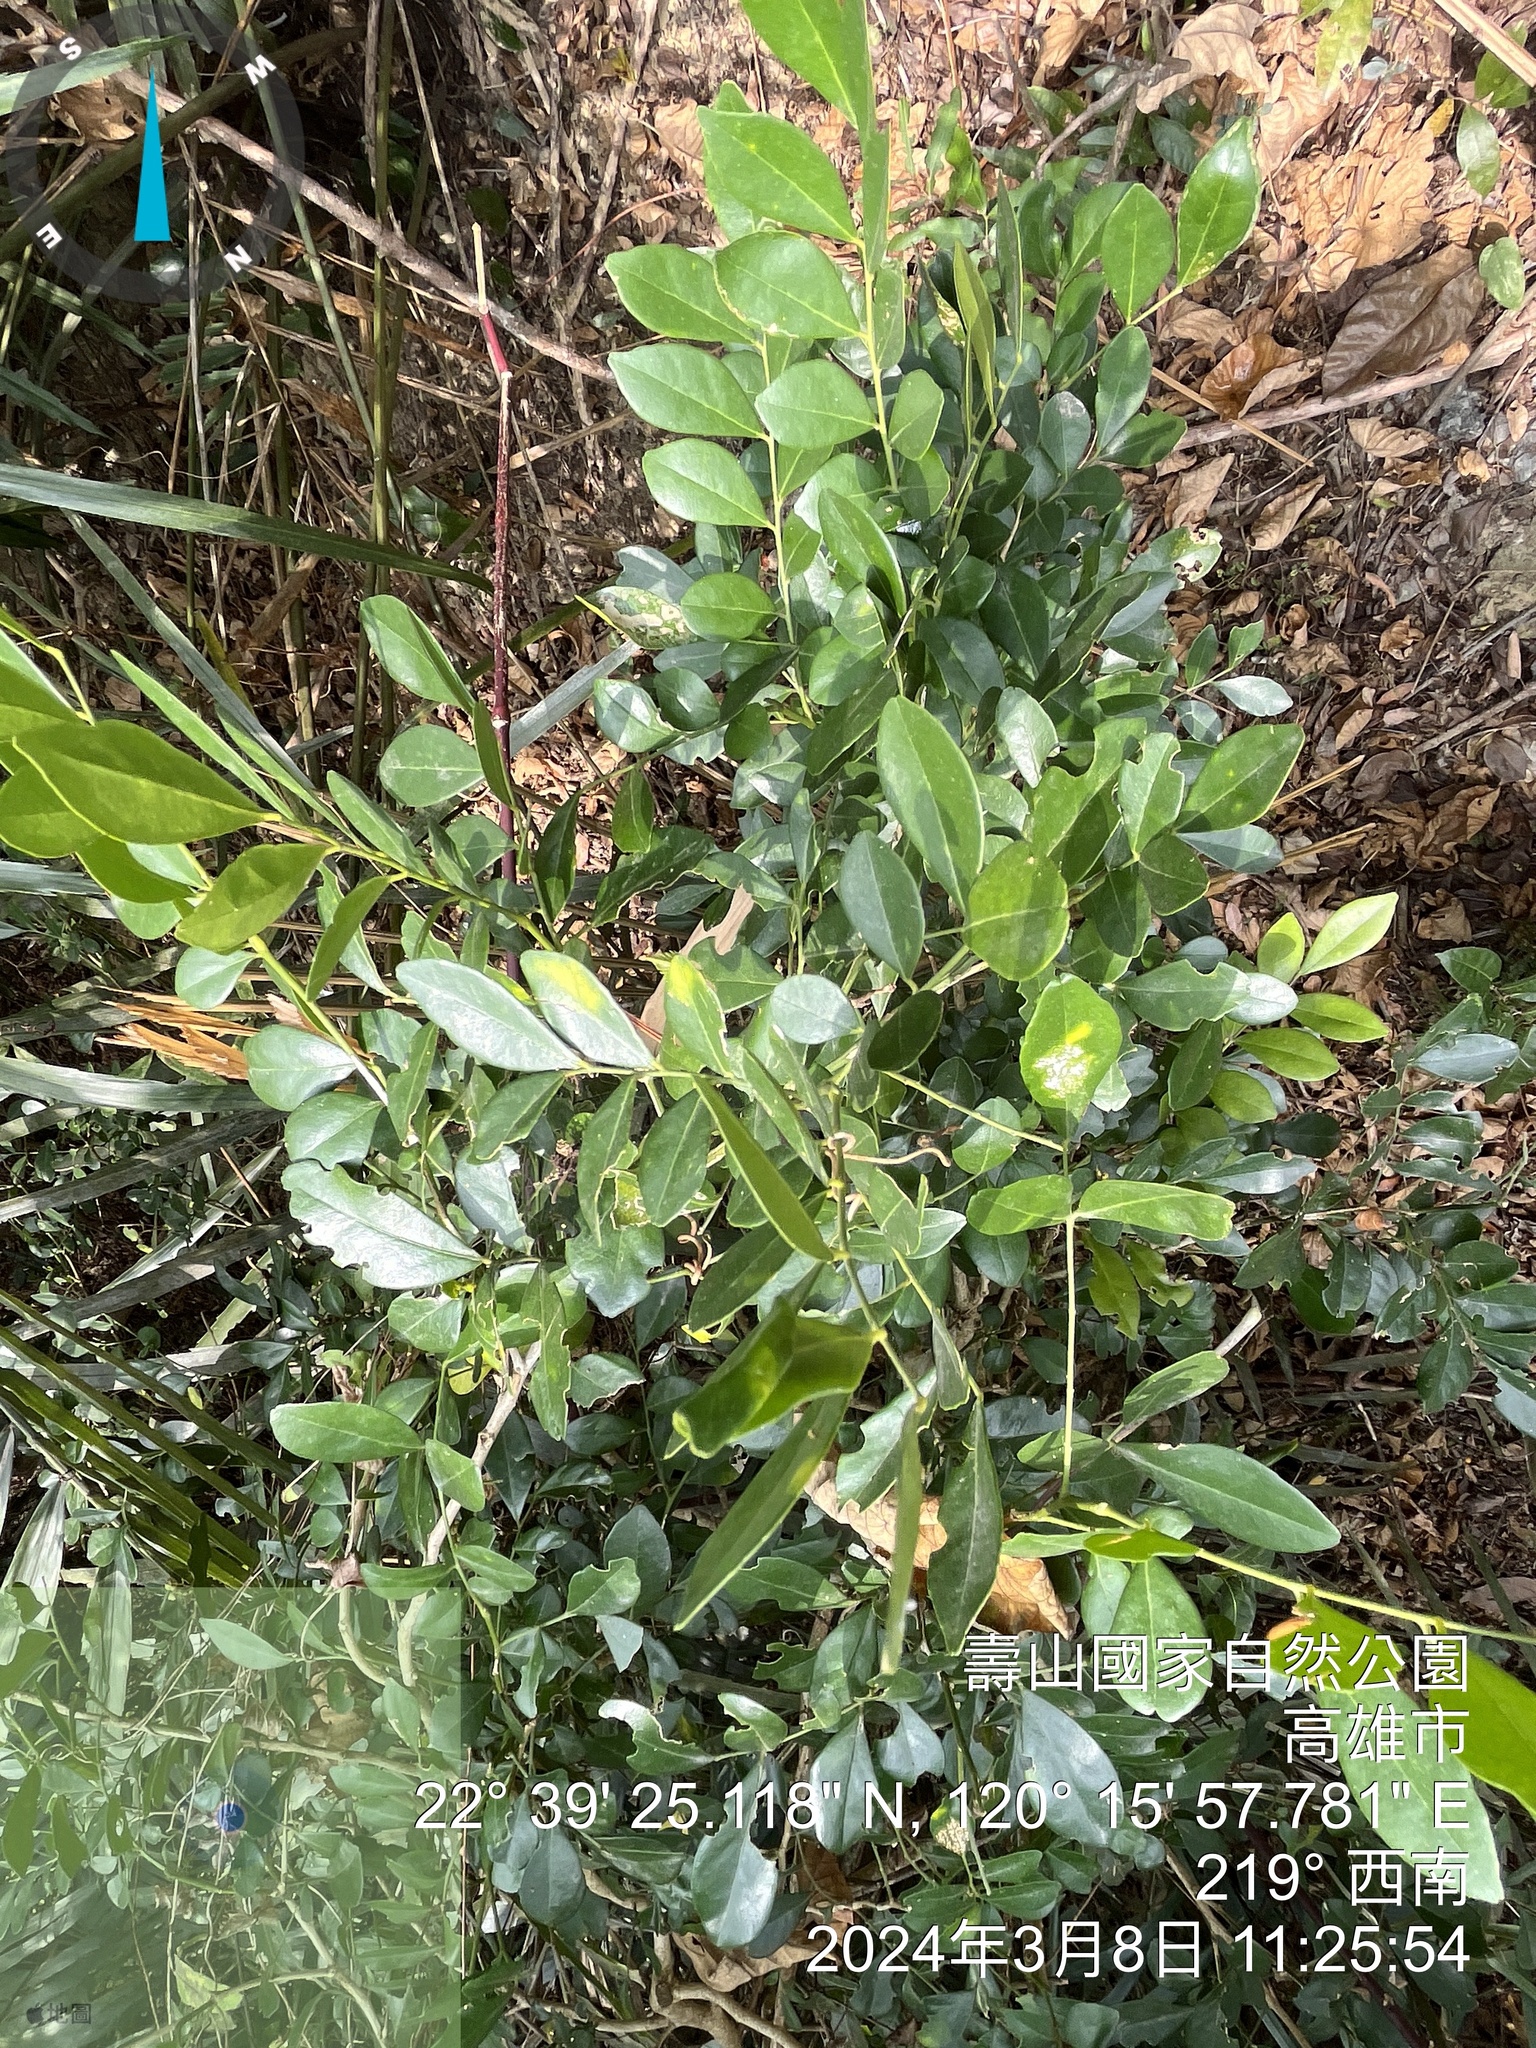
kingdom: Plantae
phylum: Tracheophyta
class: Magnoliopsida
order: Sapindales
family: Rutaceae
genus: Murraya
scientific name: Murraya paniculata
